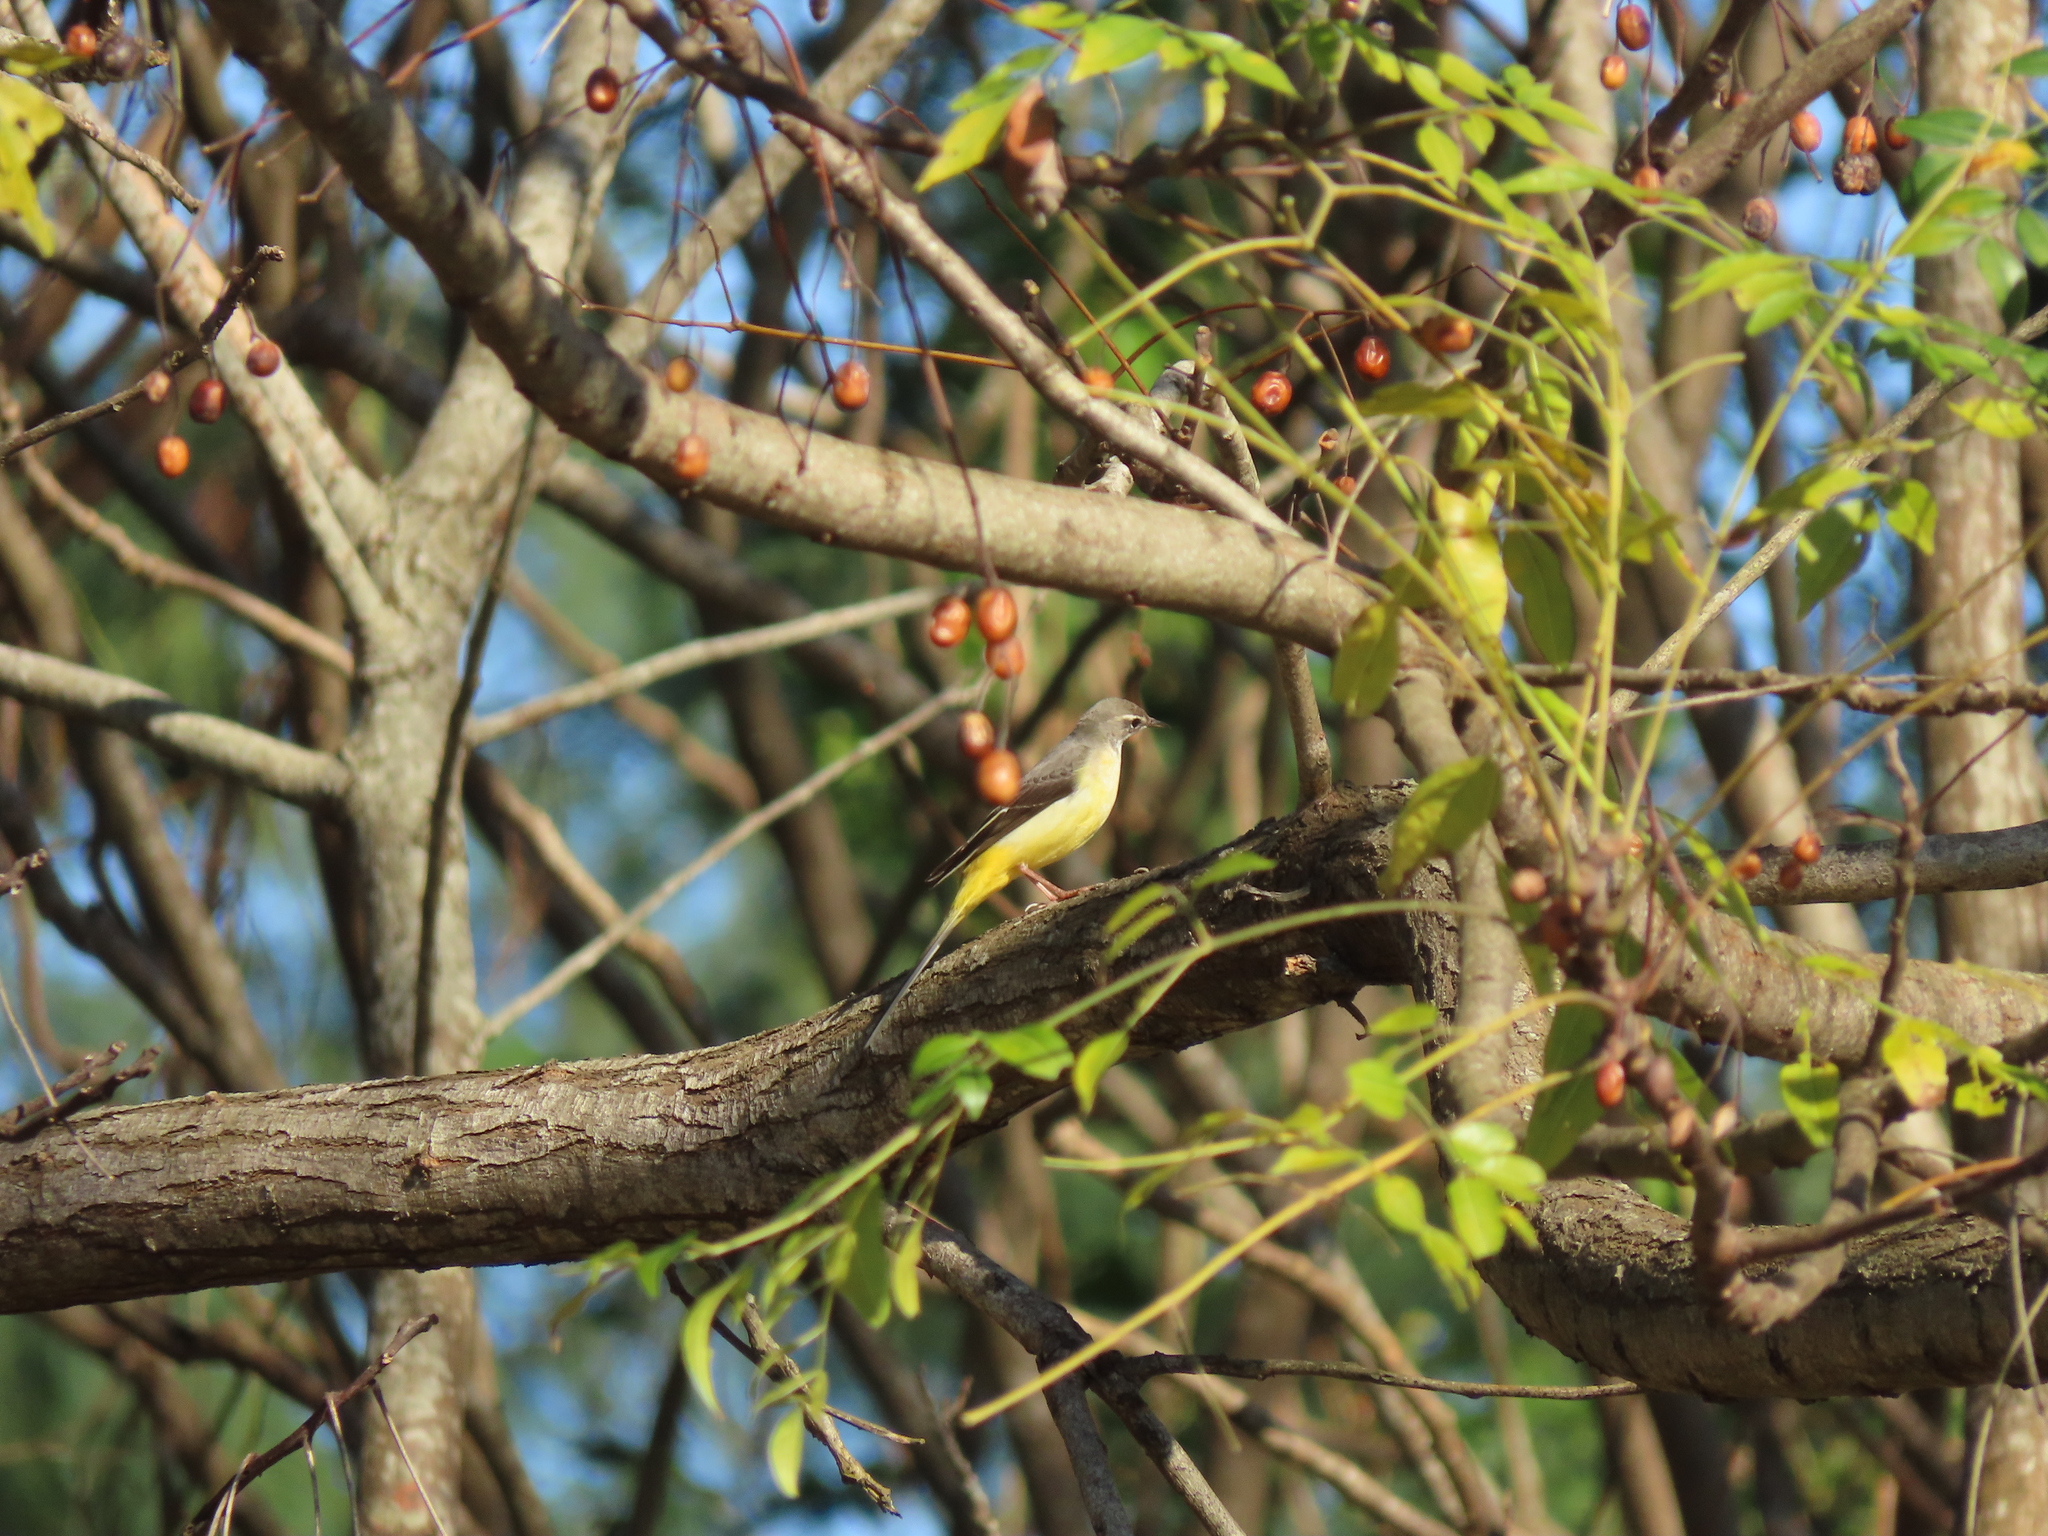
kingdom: Animalia
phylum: Chordata
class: Aves
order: Passeriformes
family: Motacillidae
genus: Motacilla
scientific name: Motacilla cinerea
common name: Grey wagtail
